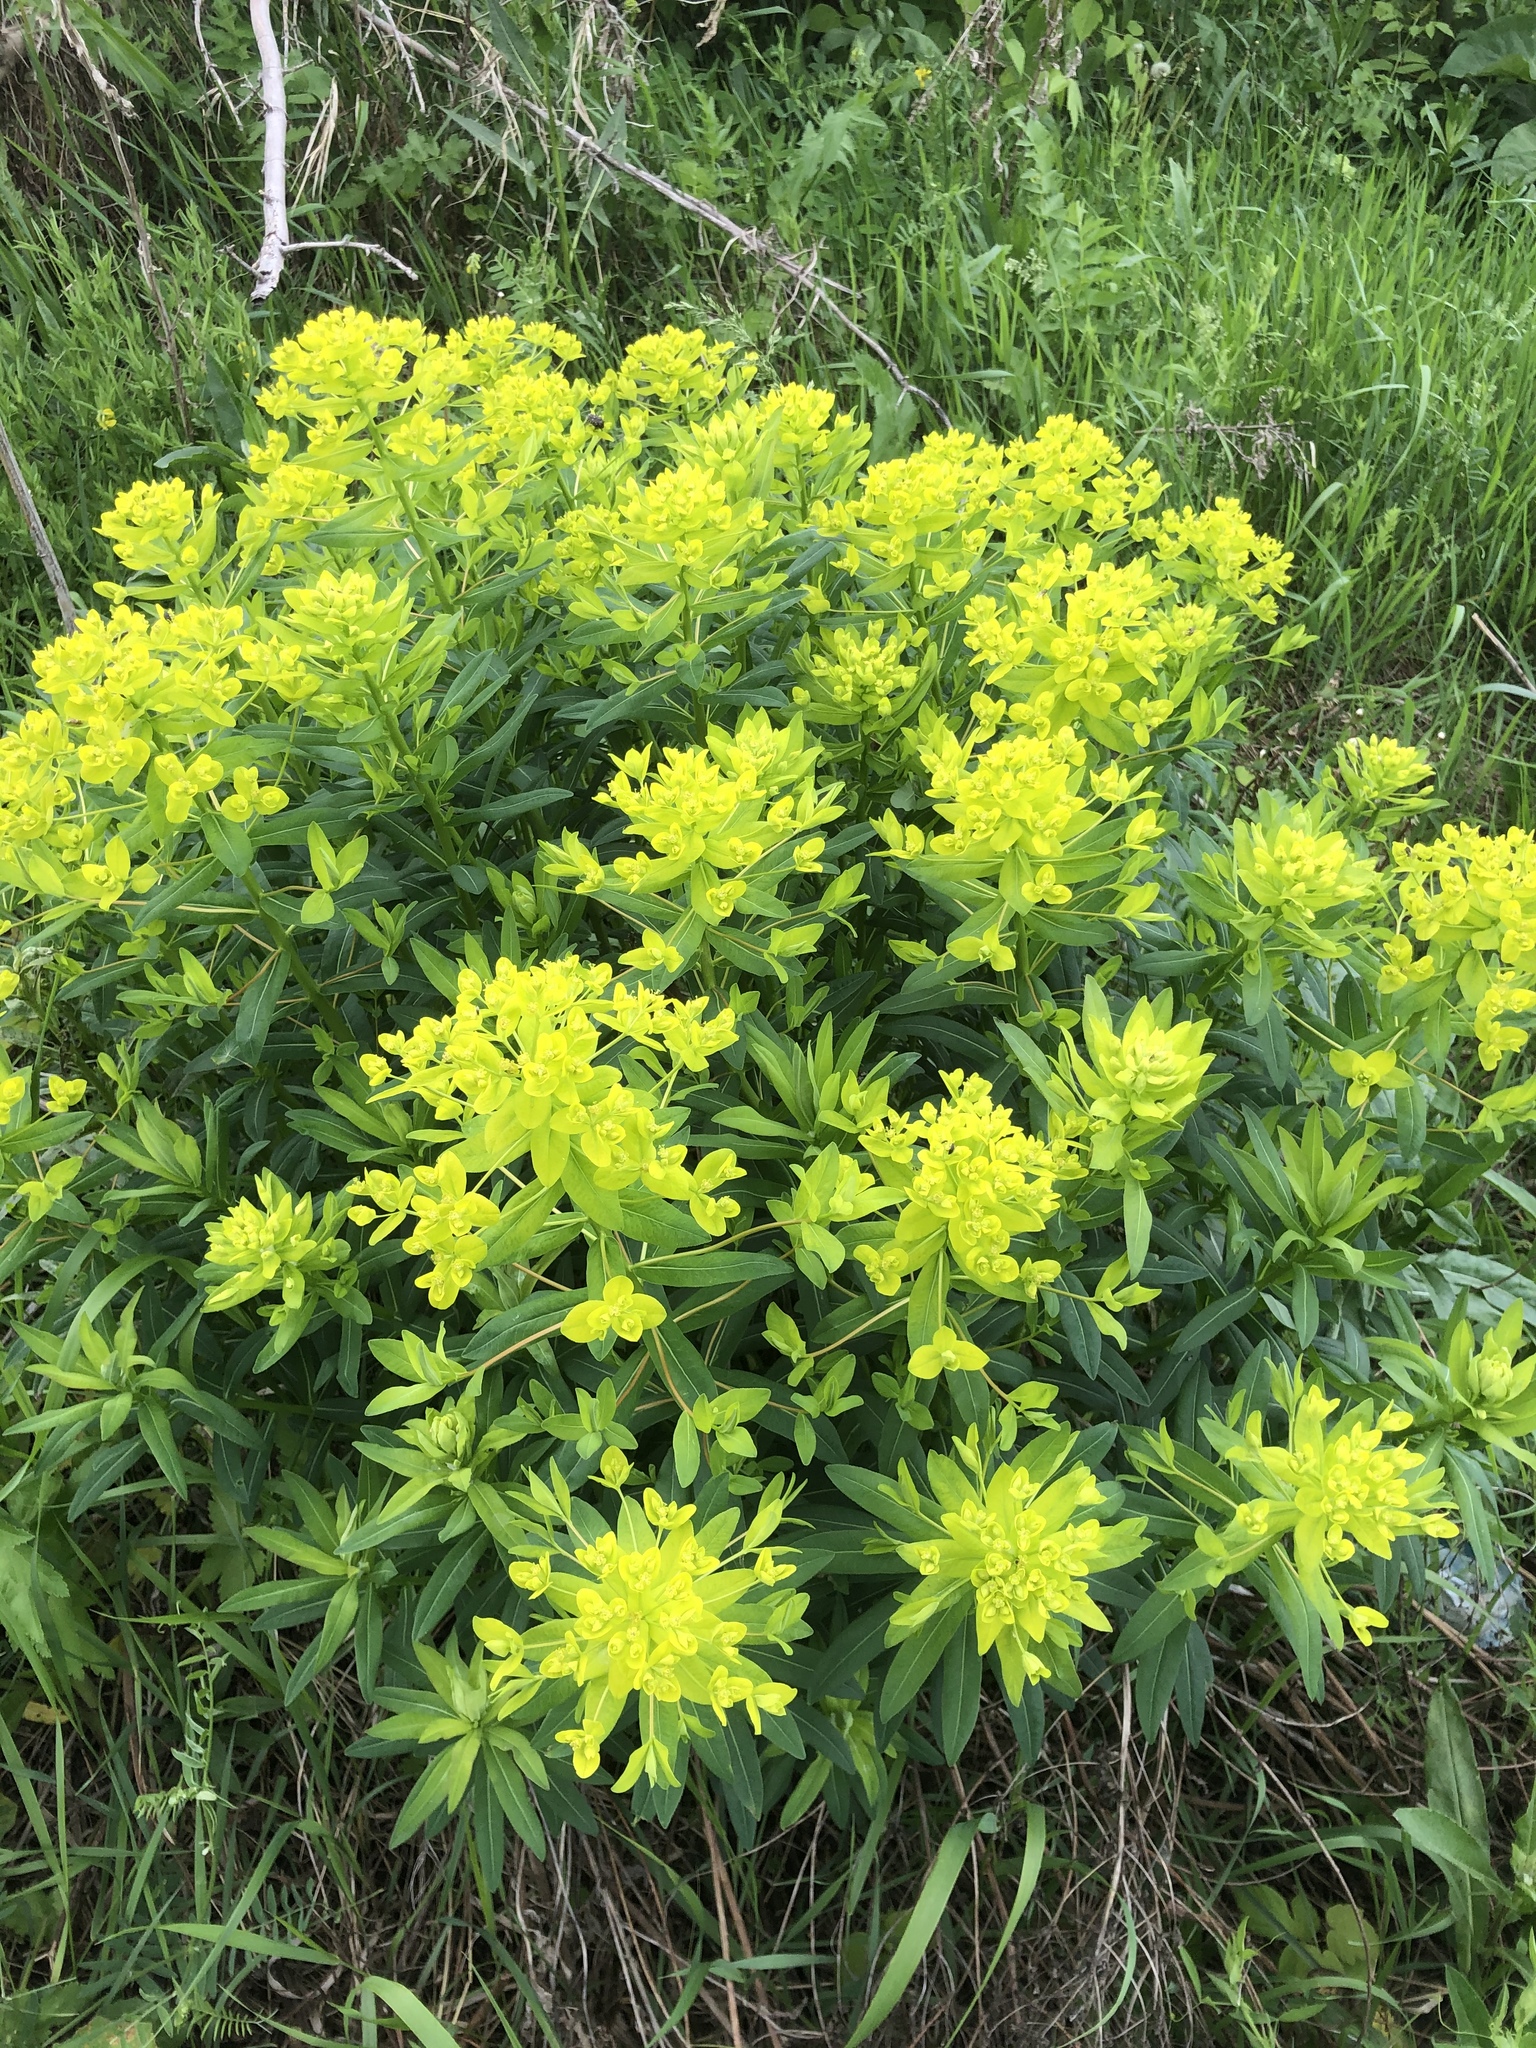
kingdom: Plantae
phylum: Tracheophyta
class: Magnoliopsida
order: Malpighiales
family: Euphorbiaceae
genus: Euphorbia
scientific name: Euphorbia lucida
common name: Shining spurge
